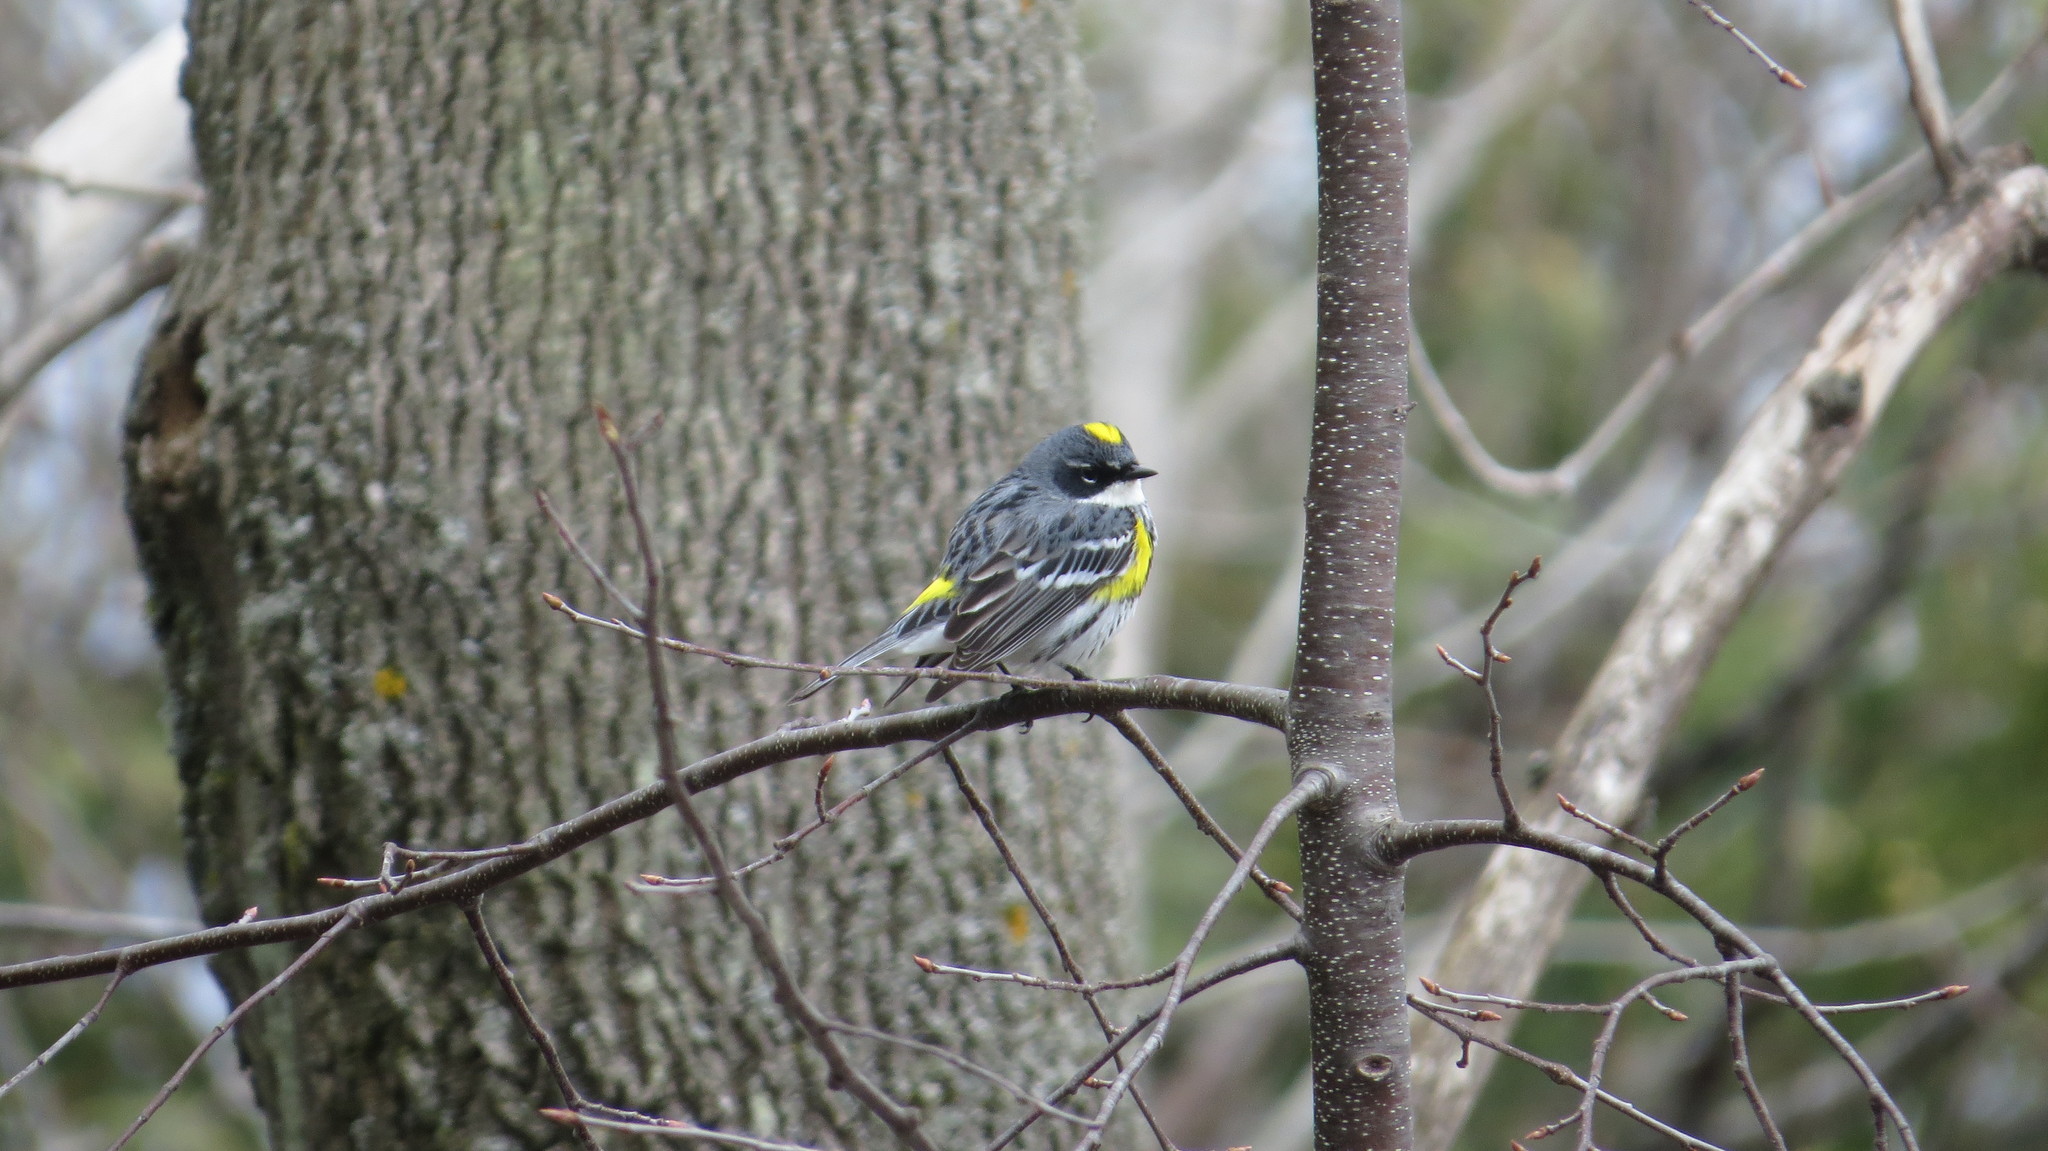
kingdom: Animalia
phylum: Chordata
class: Aves
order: Passeriformes
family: Parulidae
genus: Setophaga
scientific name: Setophaga coronata
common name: Myrtle warbler
